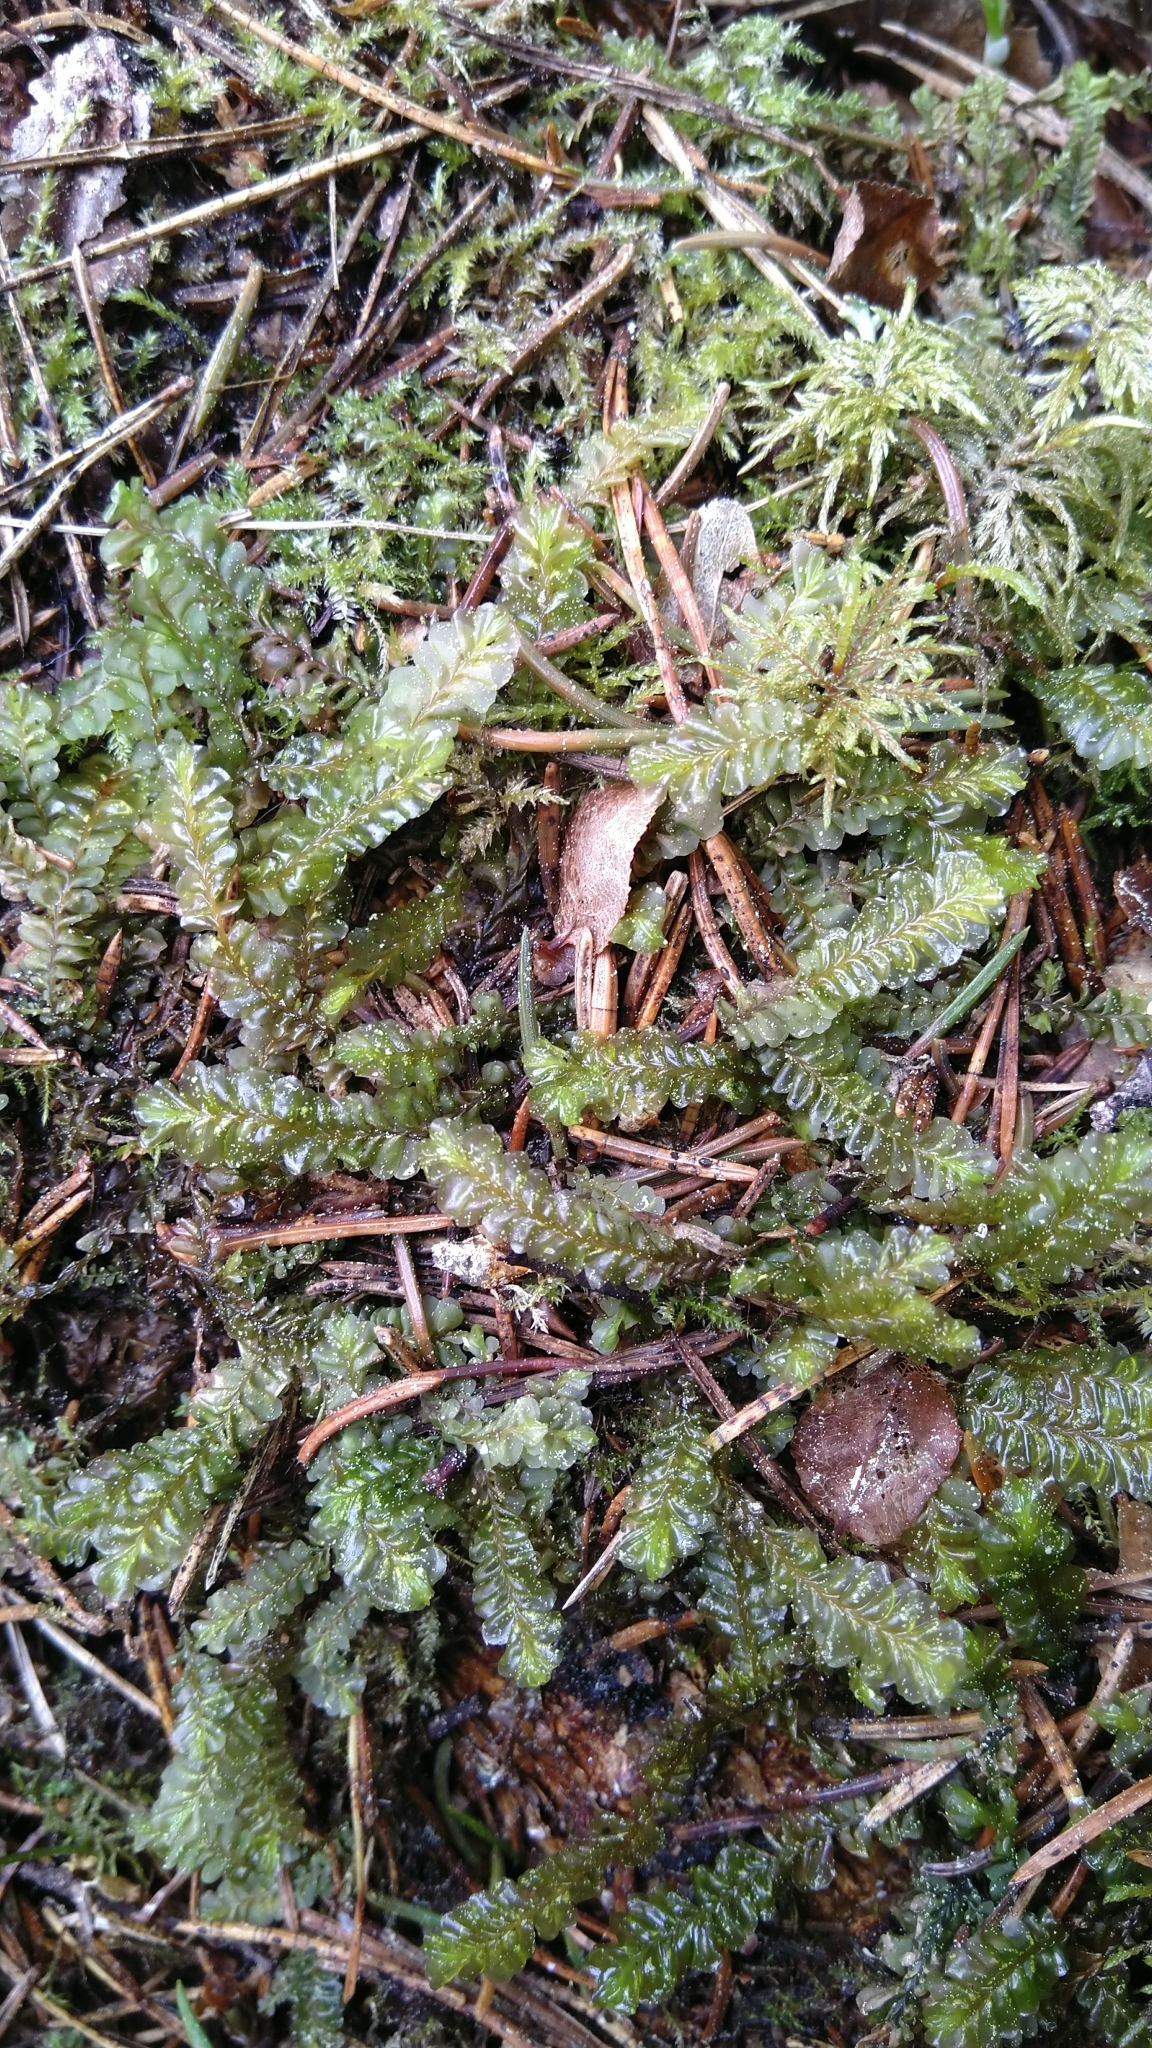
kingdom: Plantae
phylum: Marchantiophyta
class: Jungermanniopsida
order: Jungermanniales
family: Plagiochilaceae
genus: Plagiochila
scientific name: Plagiochila asplenioides
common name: Greater featherwort
